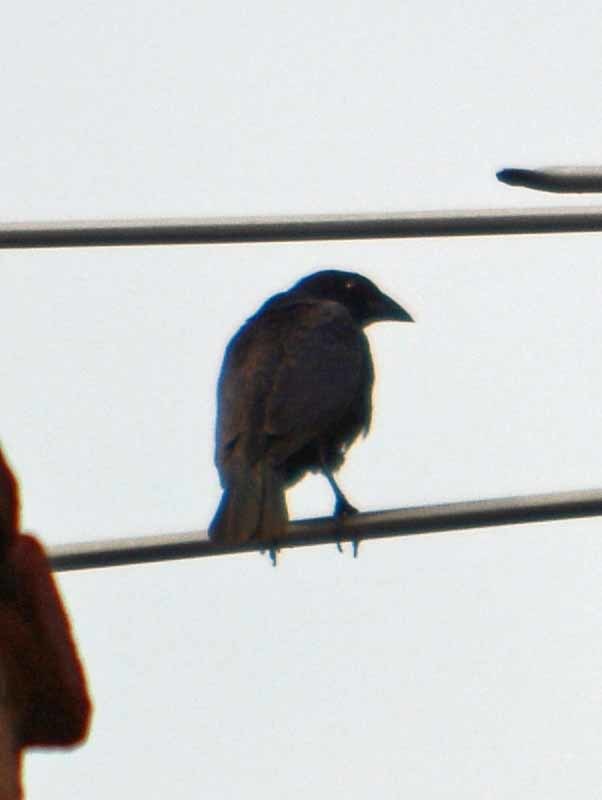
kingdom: Animalia
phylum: Chordata
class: Aves
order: Passeriformes
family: Icteridae
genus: Molothrus
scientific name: Molothrus aeneus
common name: Bronzed cowbird
